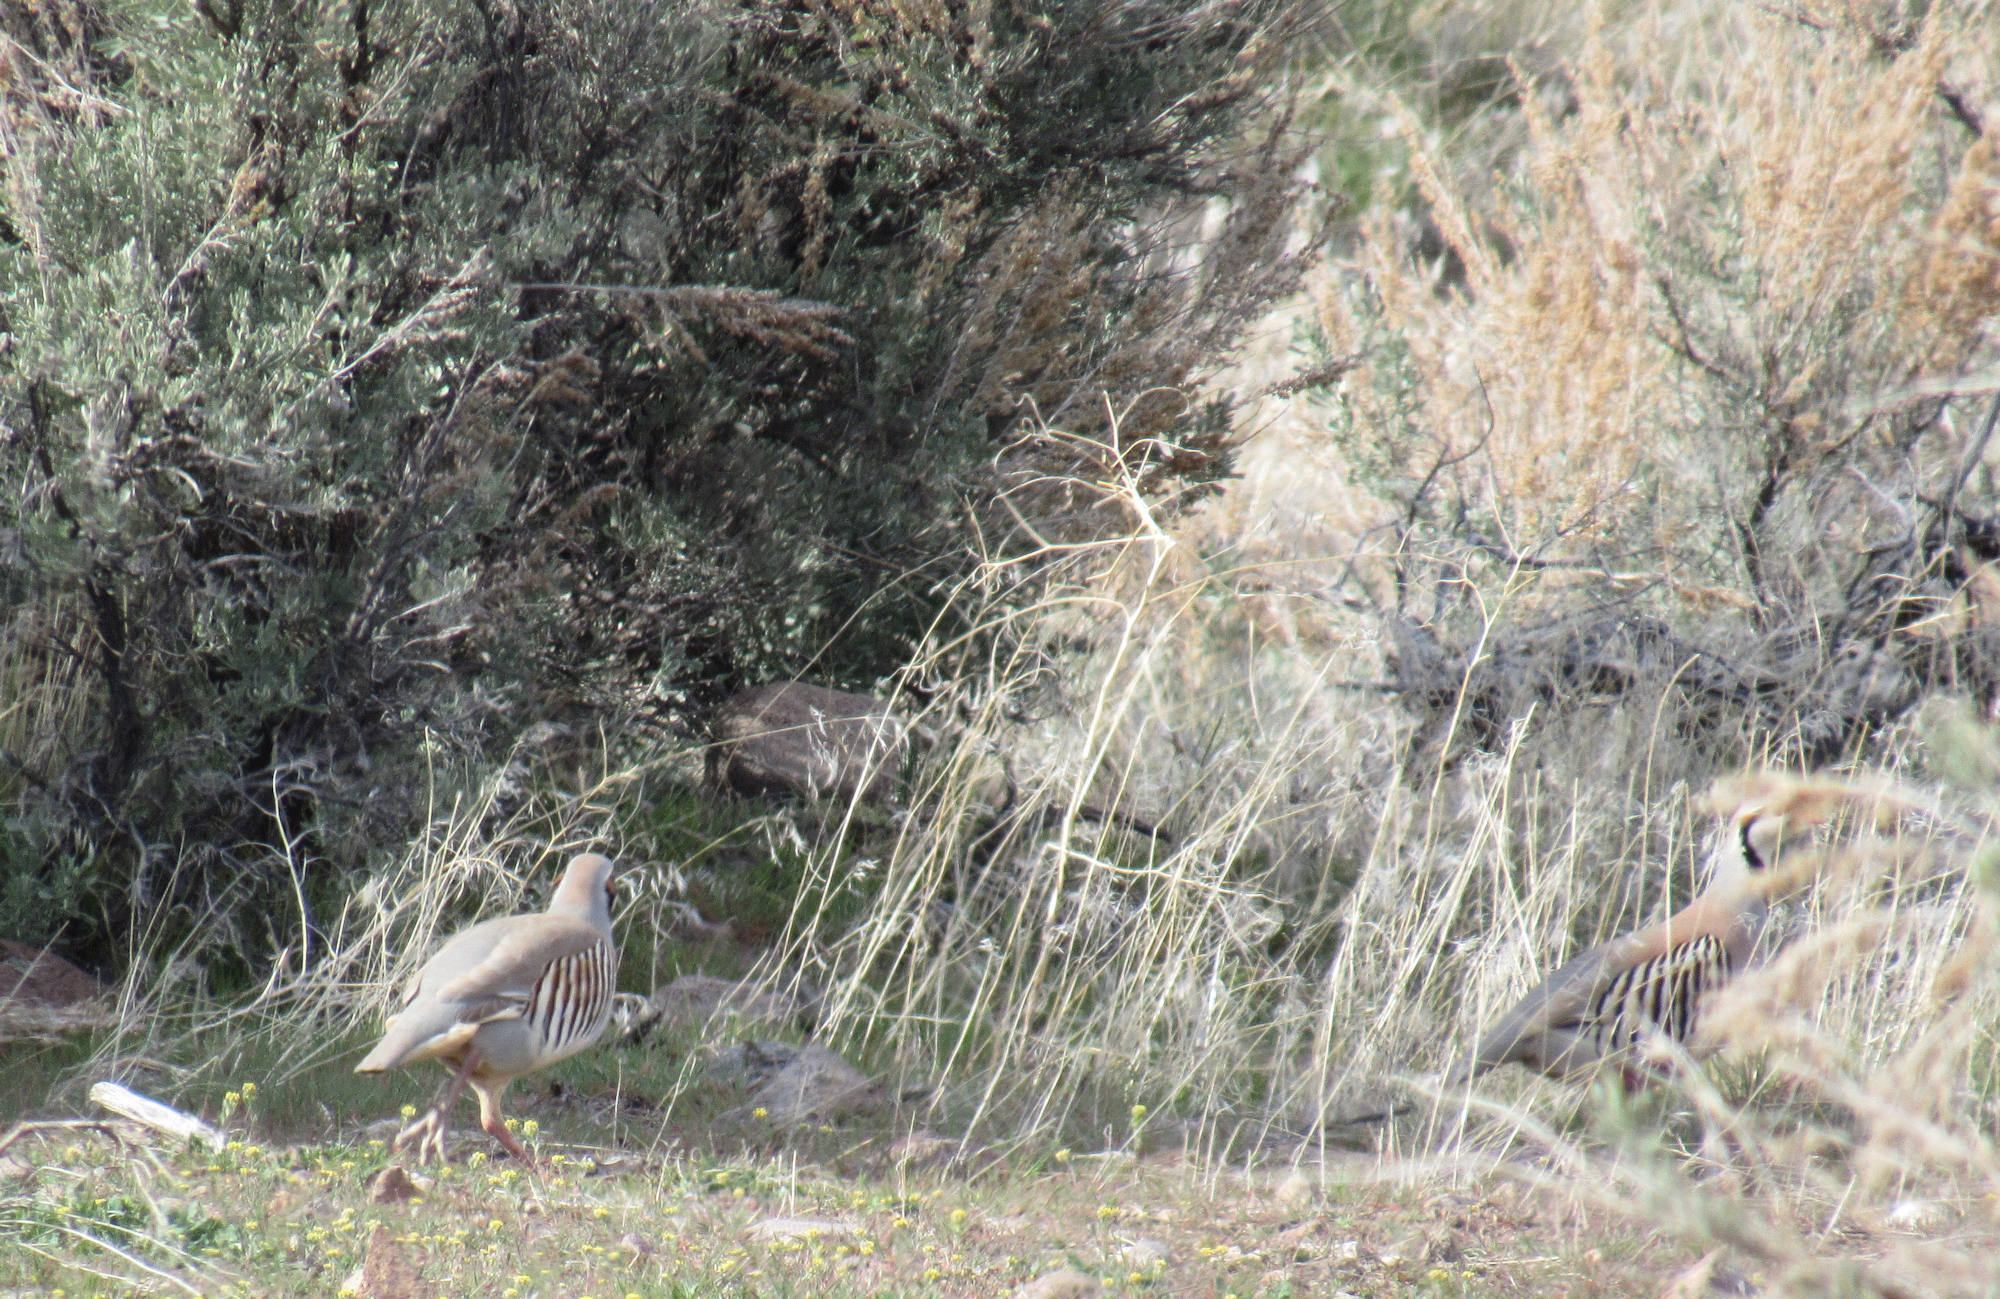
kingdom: Animalia
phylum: Chordata
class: Aves
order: Galliformes
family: Phasianidae
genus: Alectoris
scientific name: Alectoris chukar
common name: Chukar
